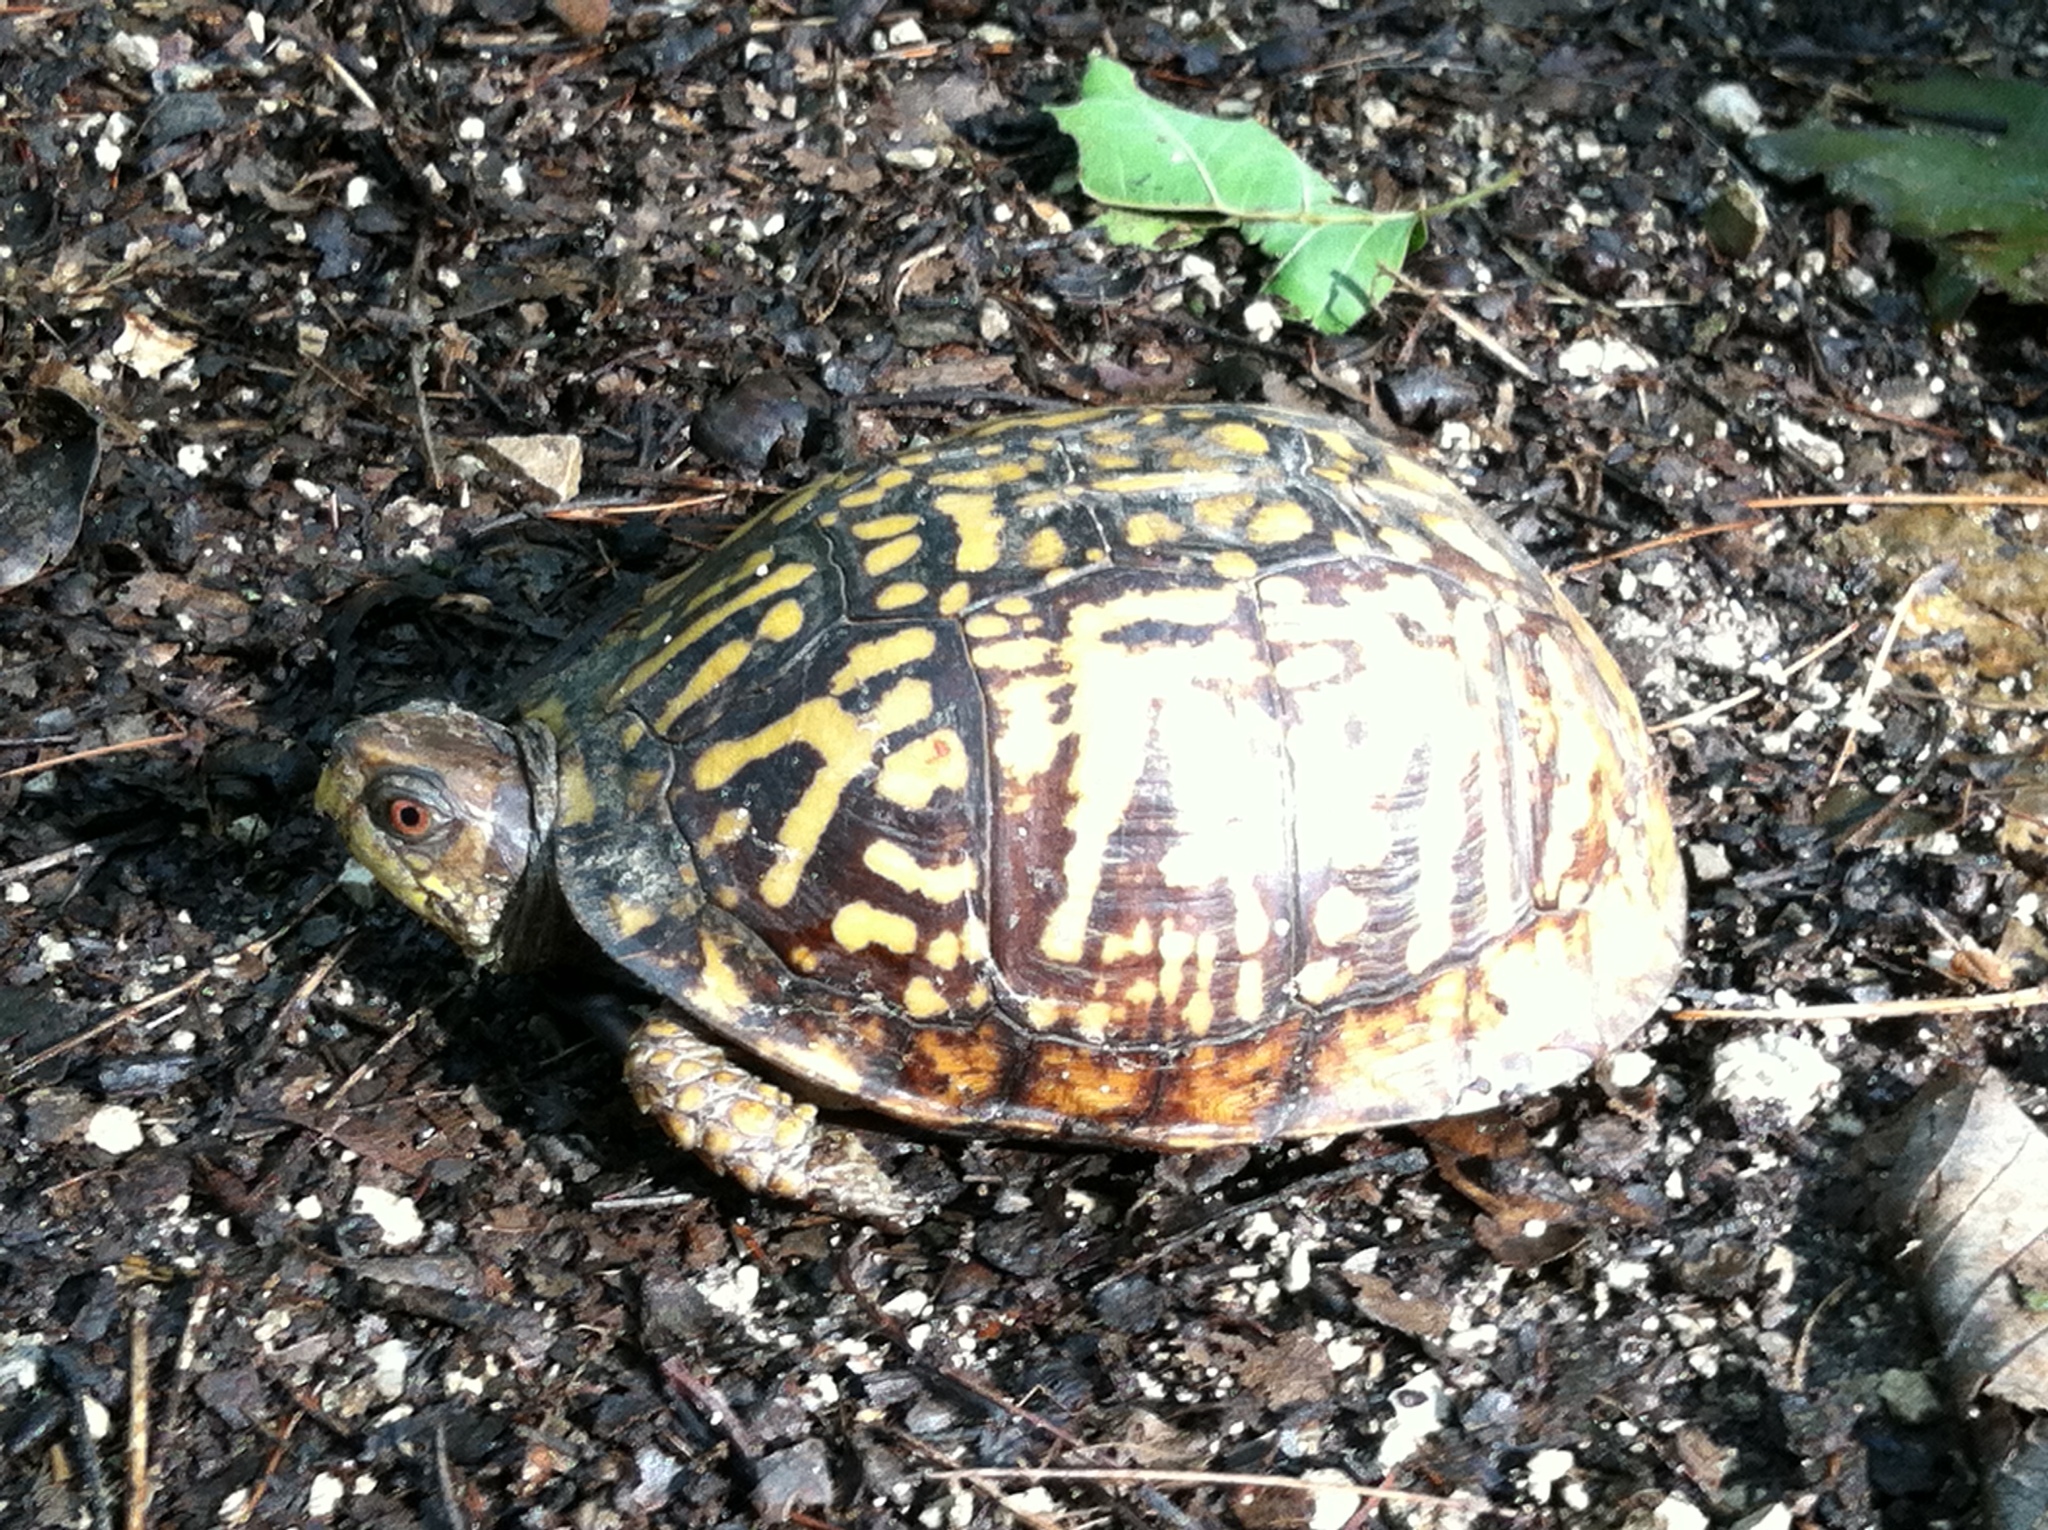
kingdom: Animalia
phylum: Chordata
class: Testudines
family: Emydidae
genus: Terrapene
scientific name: Terrapene carolina
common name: Common box turtle
